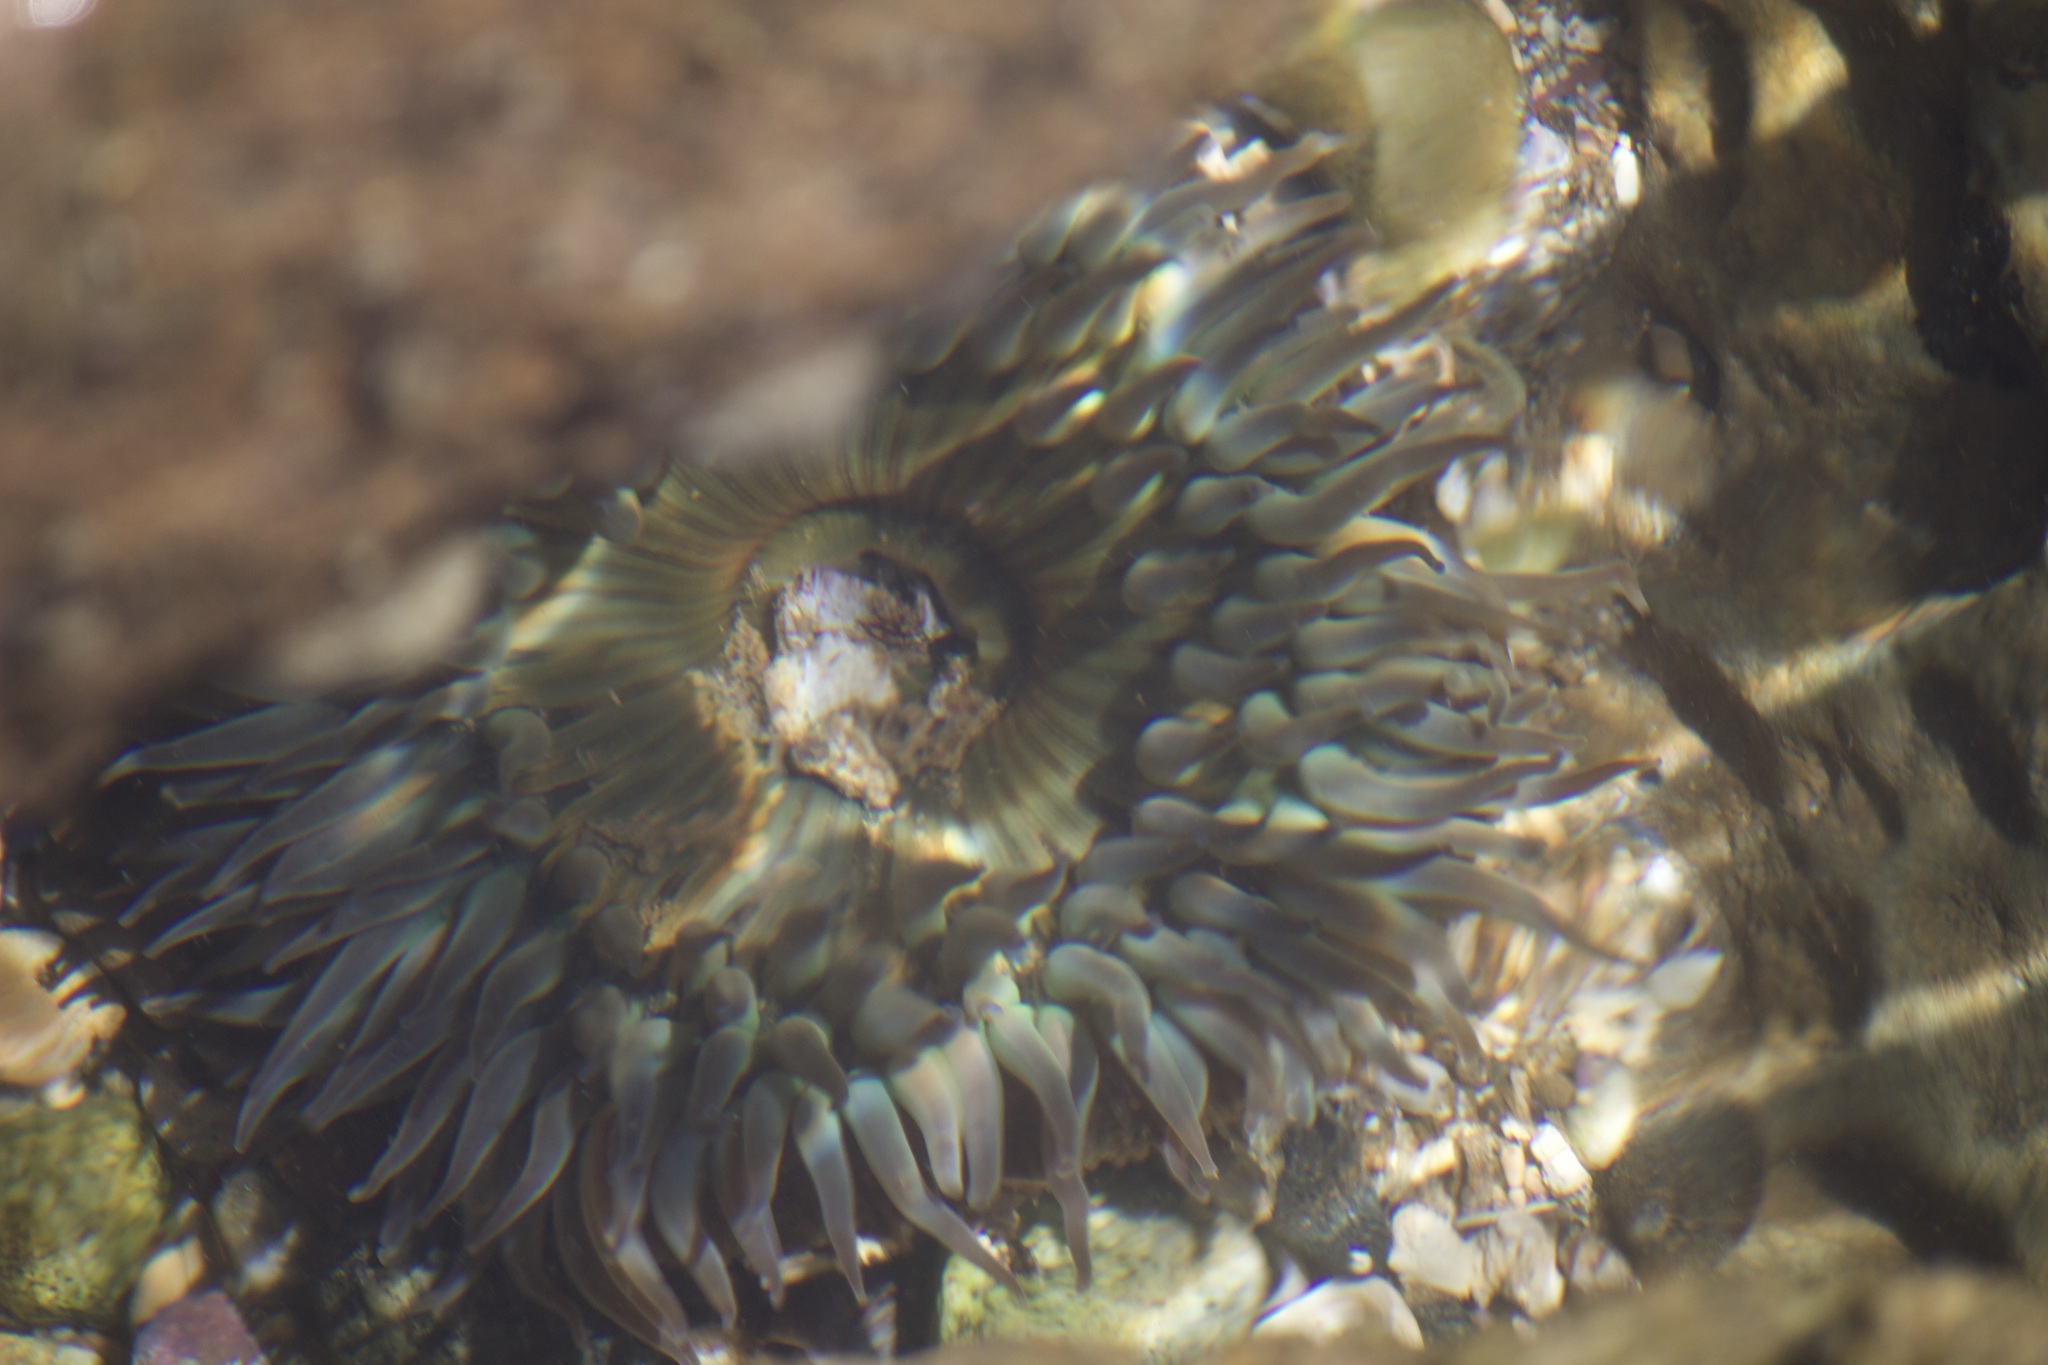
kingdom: Animalia
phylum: Cnidaria
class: Anthozoa
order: Actiniaria
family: Actiniidae
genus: Anthopleura
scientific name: Anthopleura sola
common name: Sun anemone
